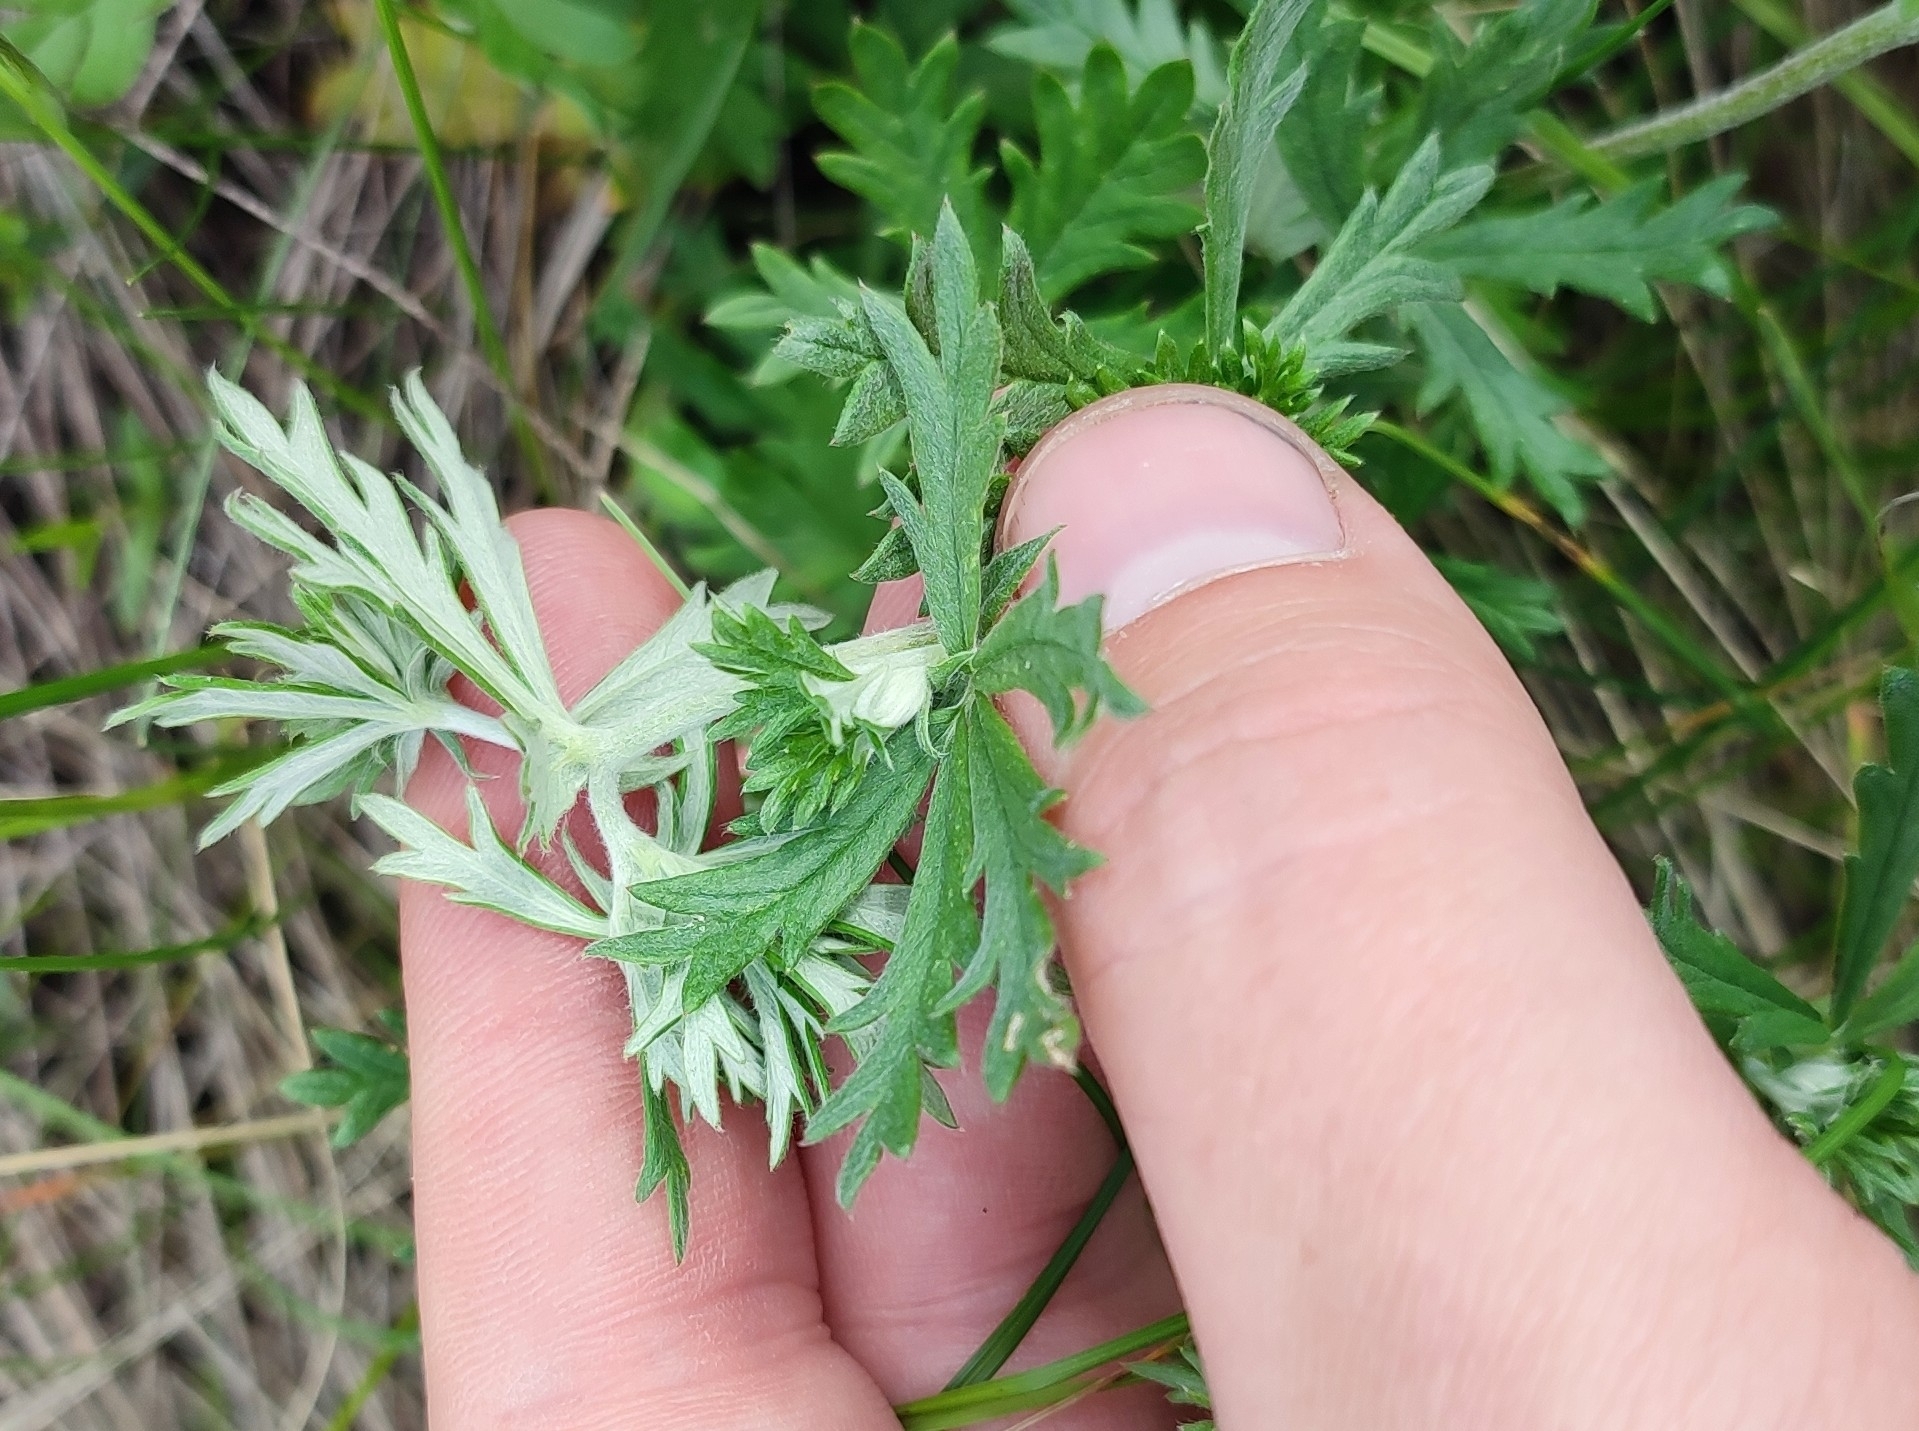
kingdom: Plantae
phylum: Tracheophyta
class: Magnoliopsida
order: Rosales
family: Rosaceae
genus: Potentilla
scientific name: Potentilla argentea
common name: Hoary cinquefoil
